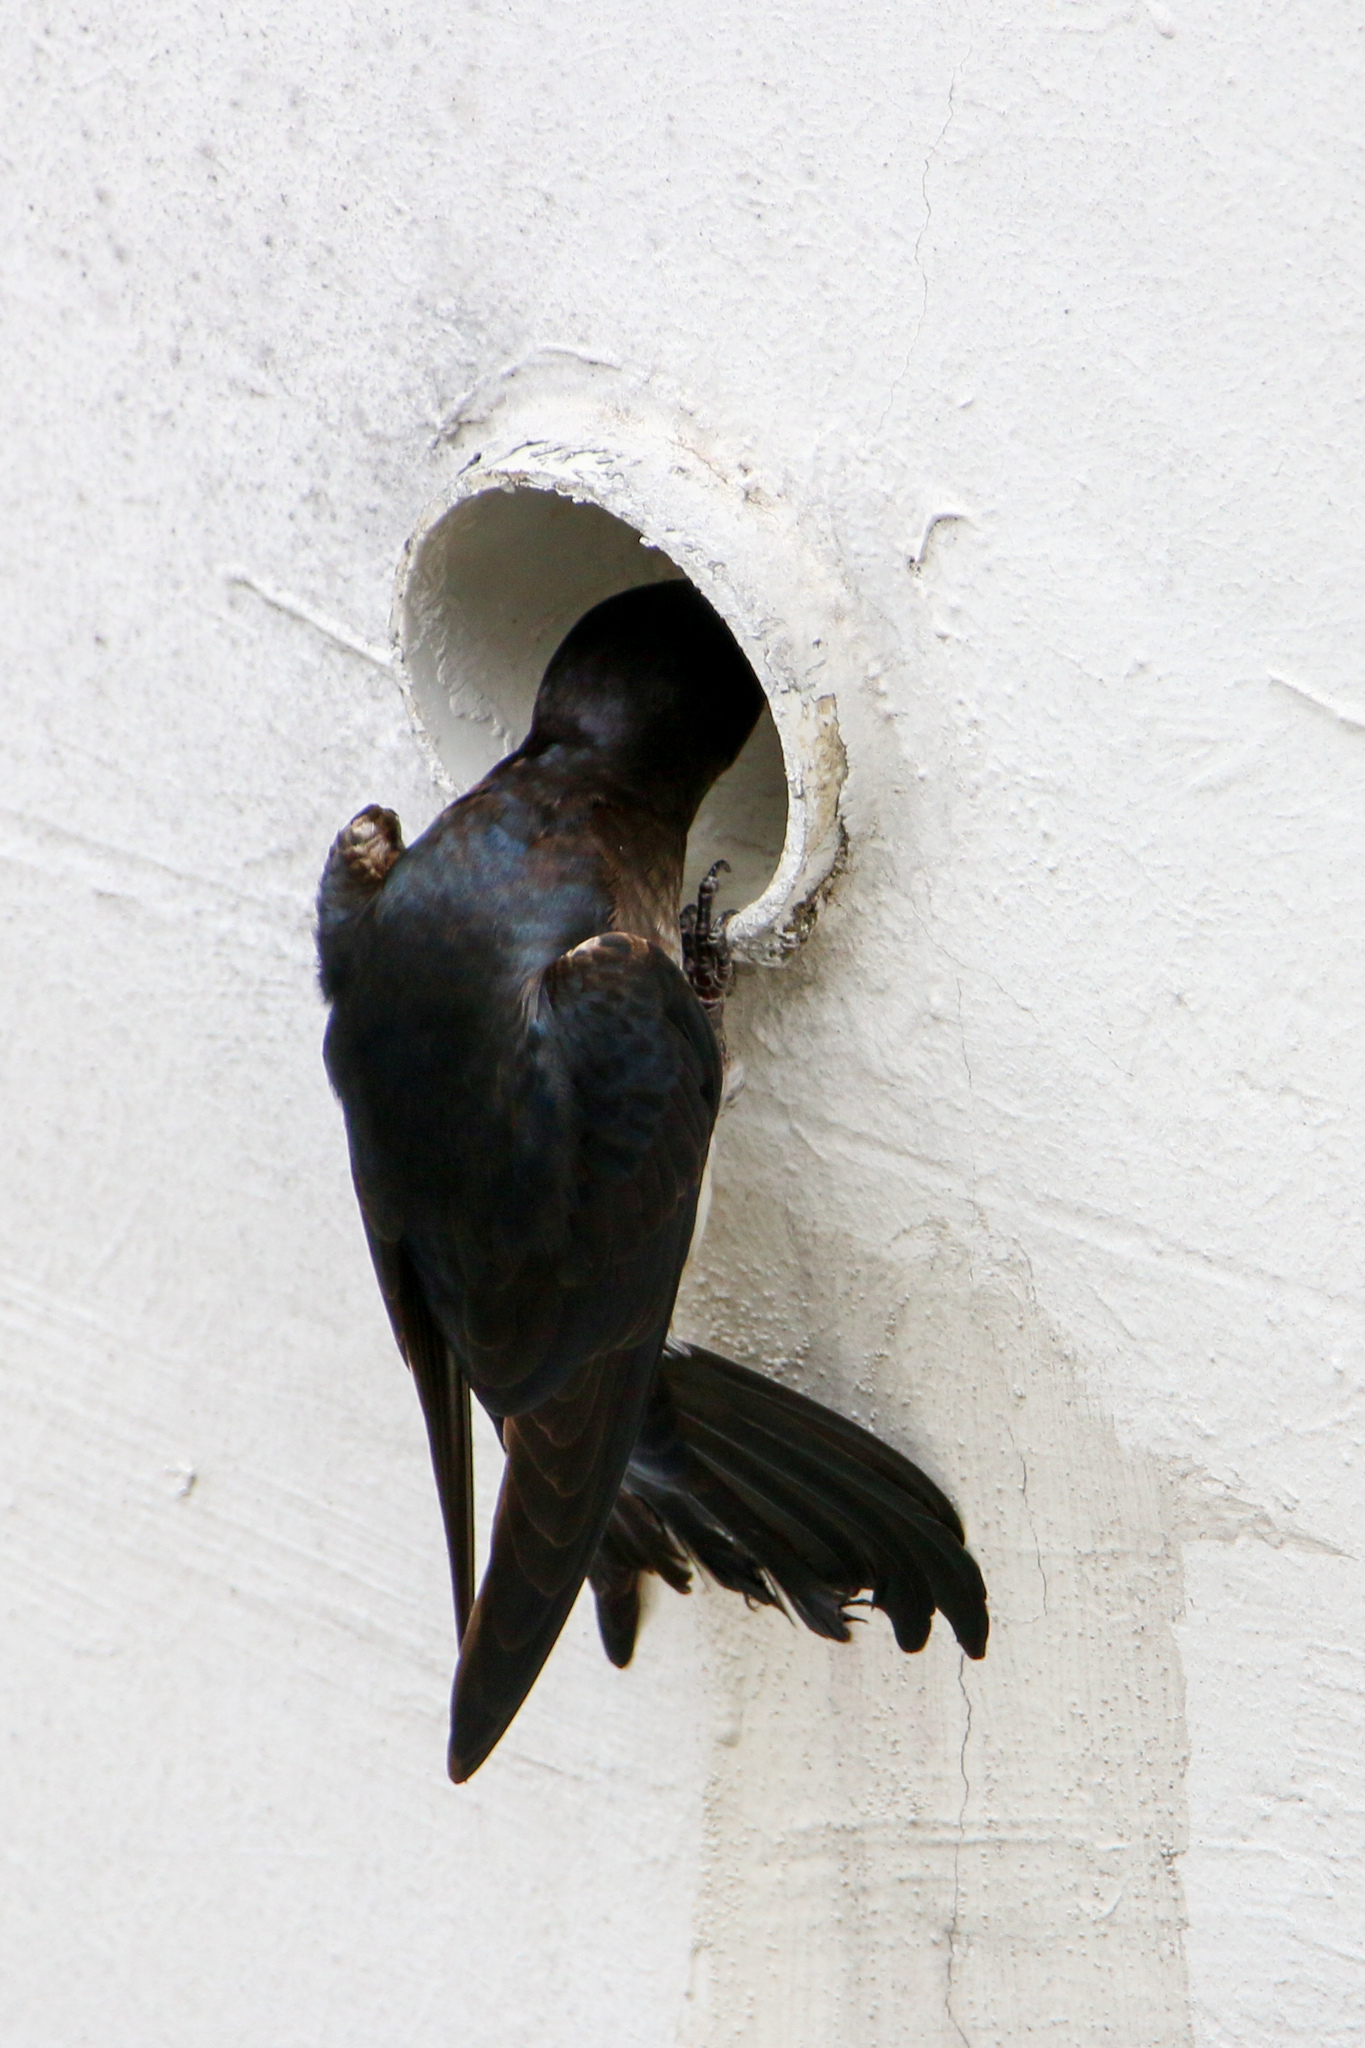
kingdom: Animalia
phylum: Chordata
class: Aves
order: Passeriformes
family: Hirundinidae
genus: Progne
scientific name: Progne chalybea
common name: Grey-breasted martin
